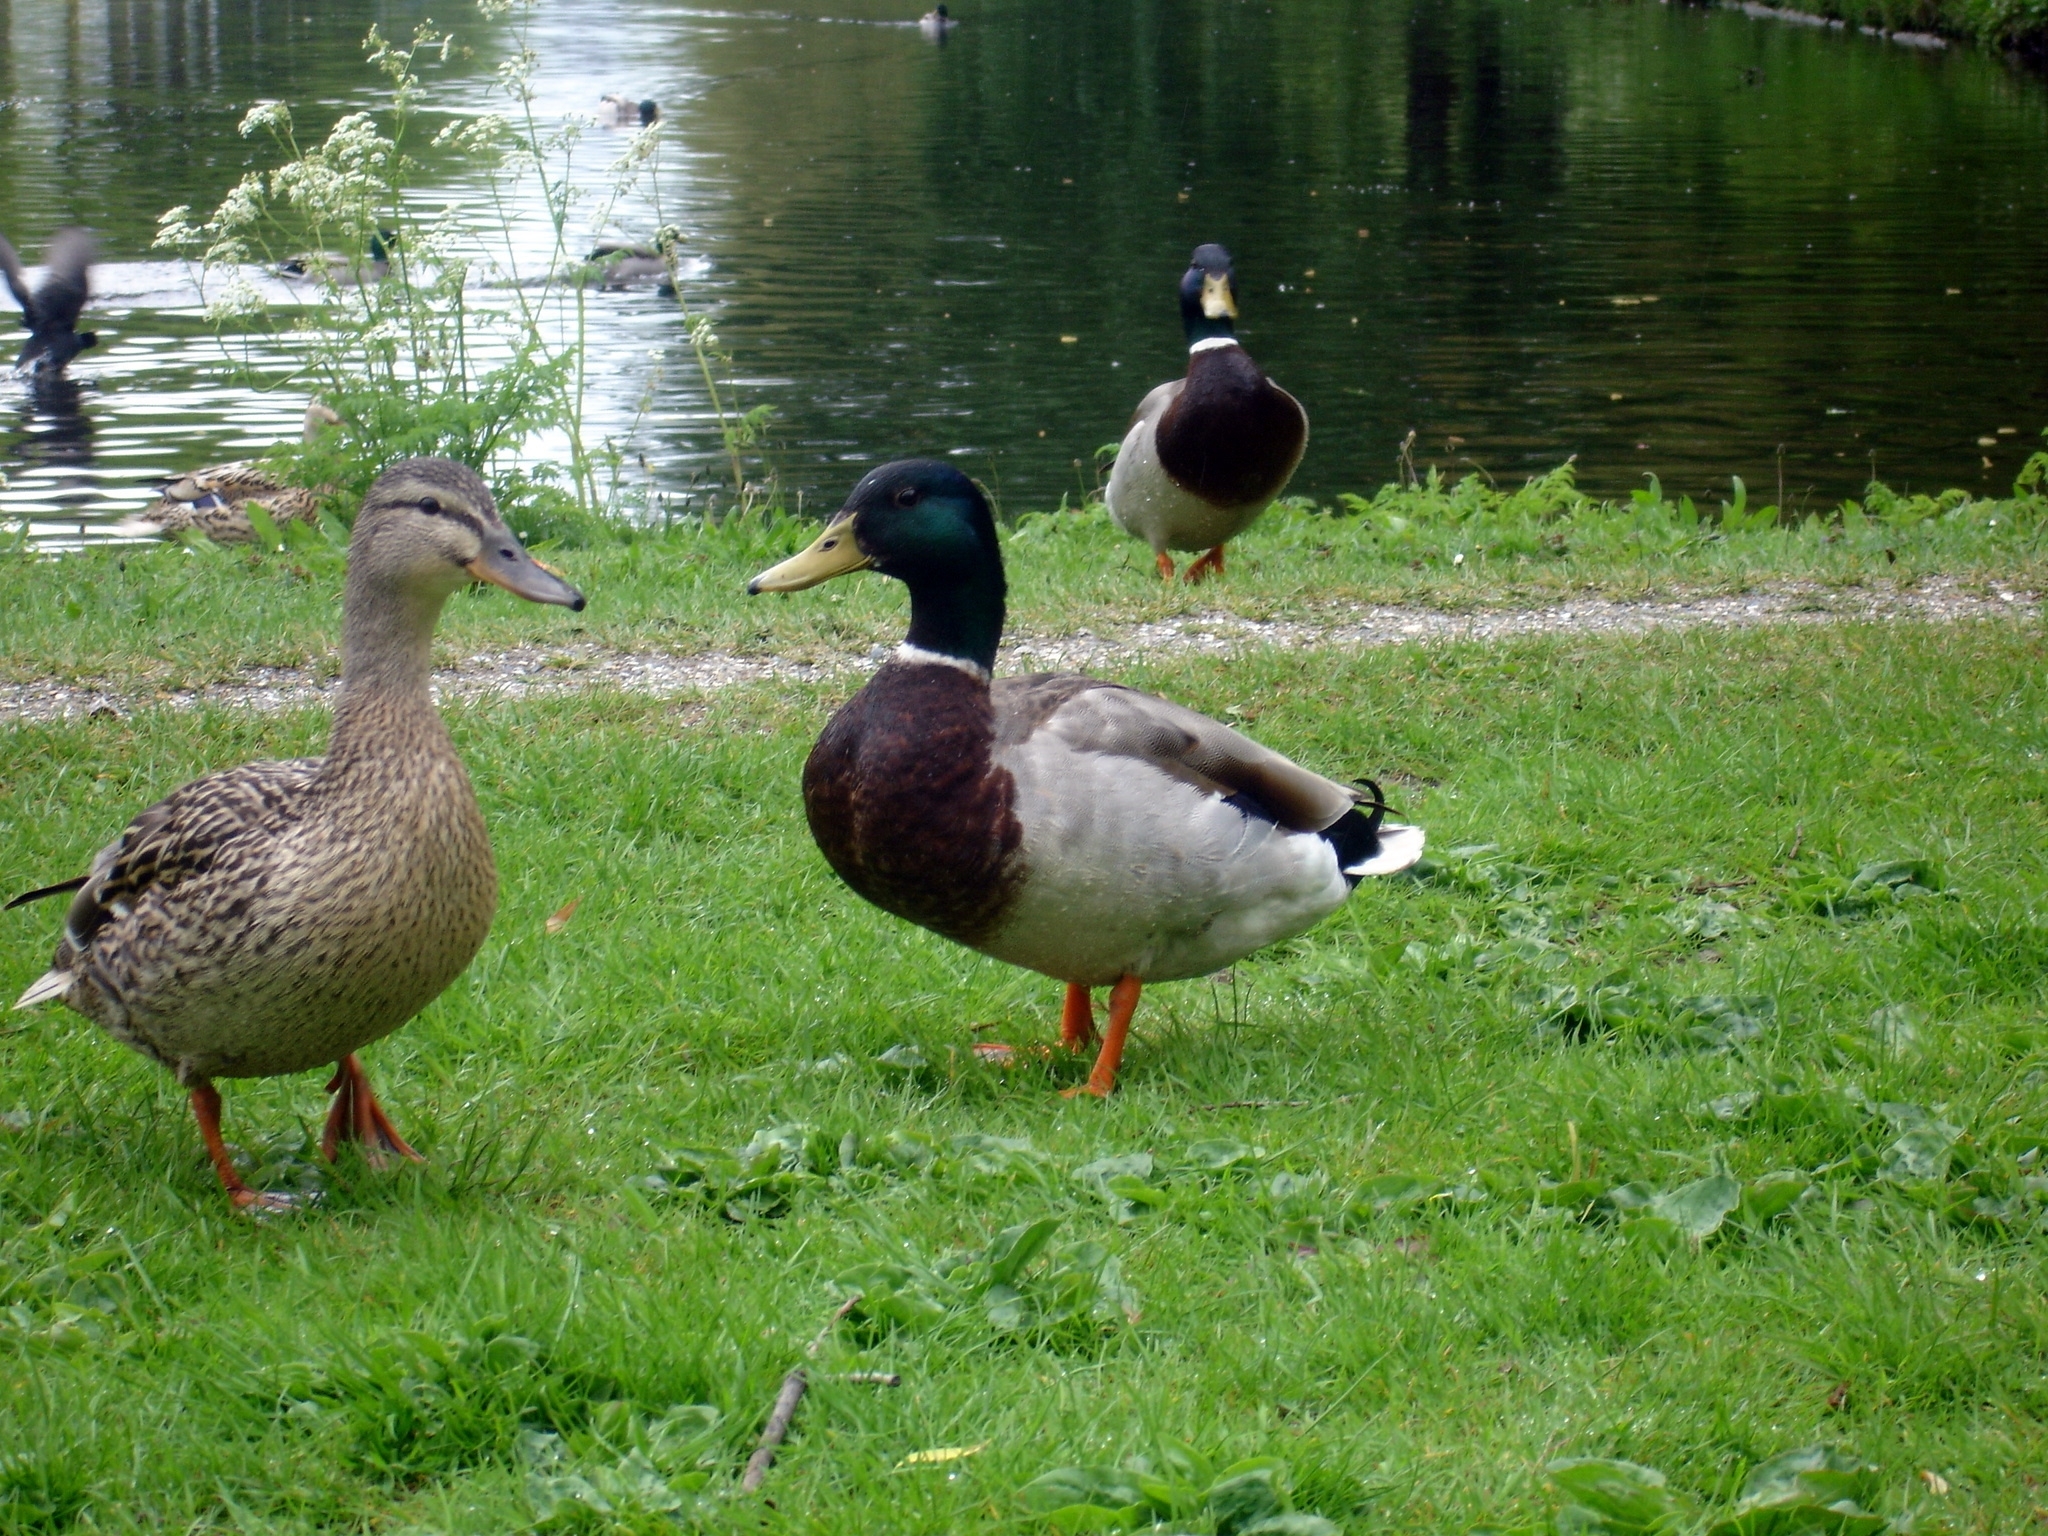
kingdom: Animalia
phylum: Chordata
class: Aves
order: Anseriformes
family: Anatidae
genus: Anas
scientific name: Anas platyrhynchos
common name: Mallard
